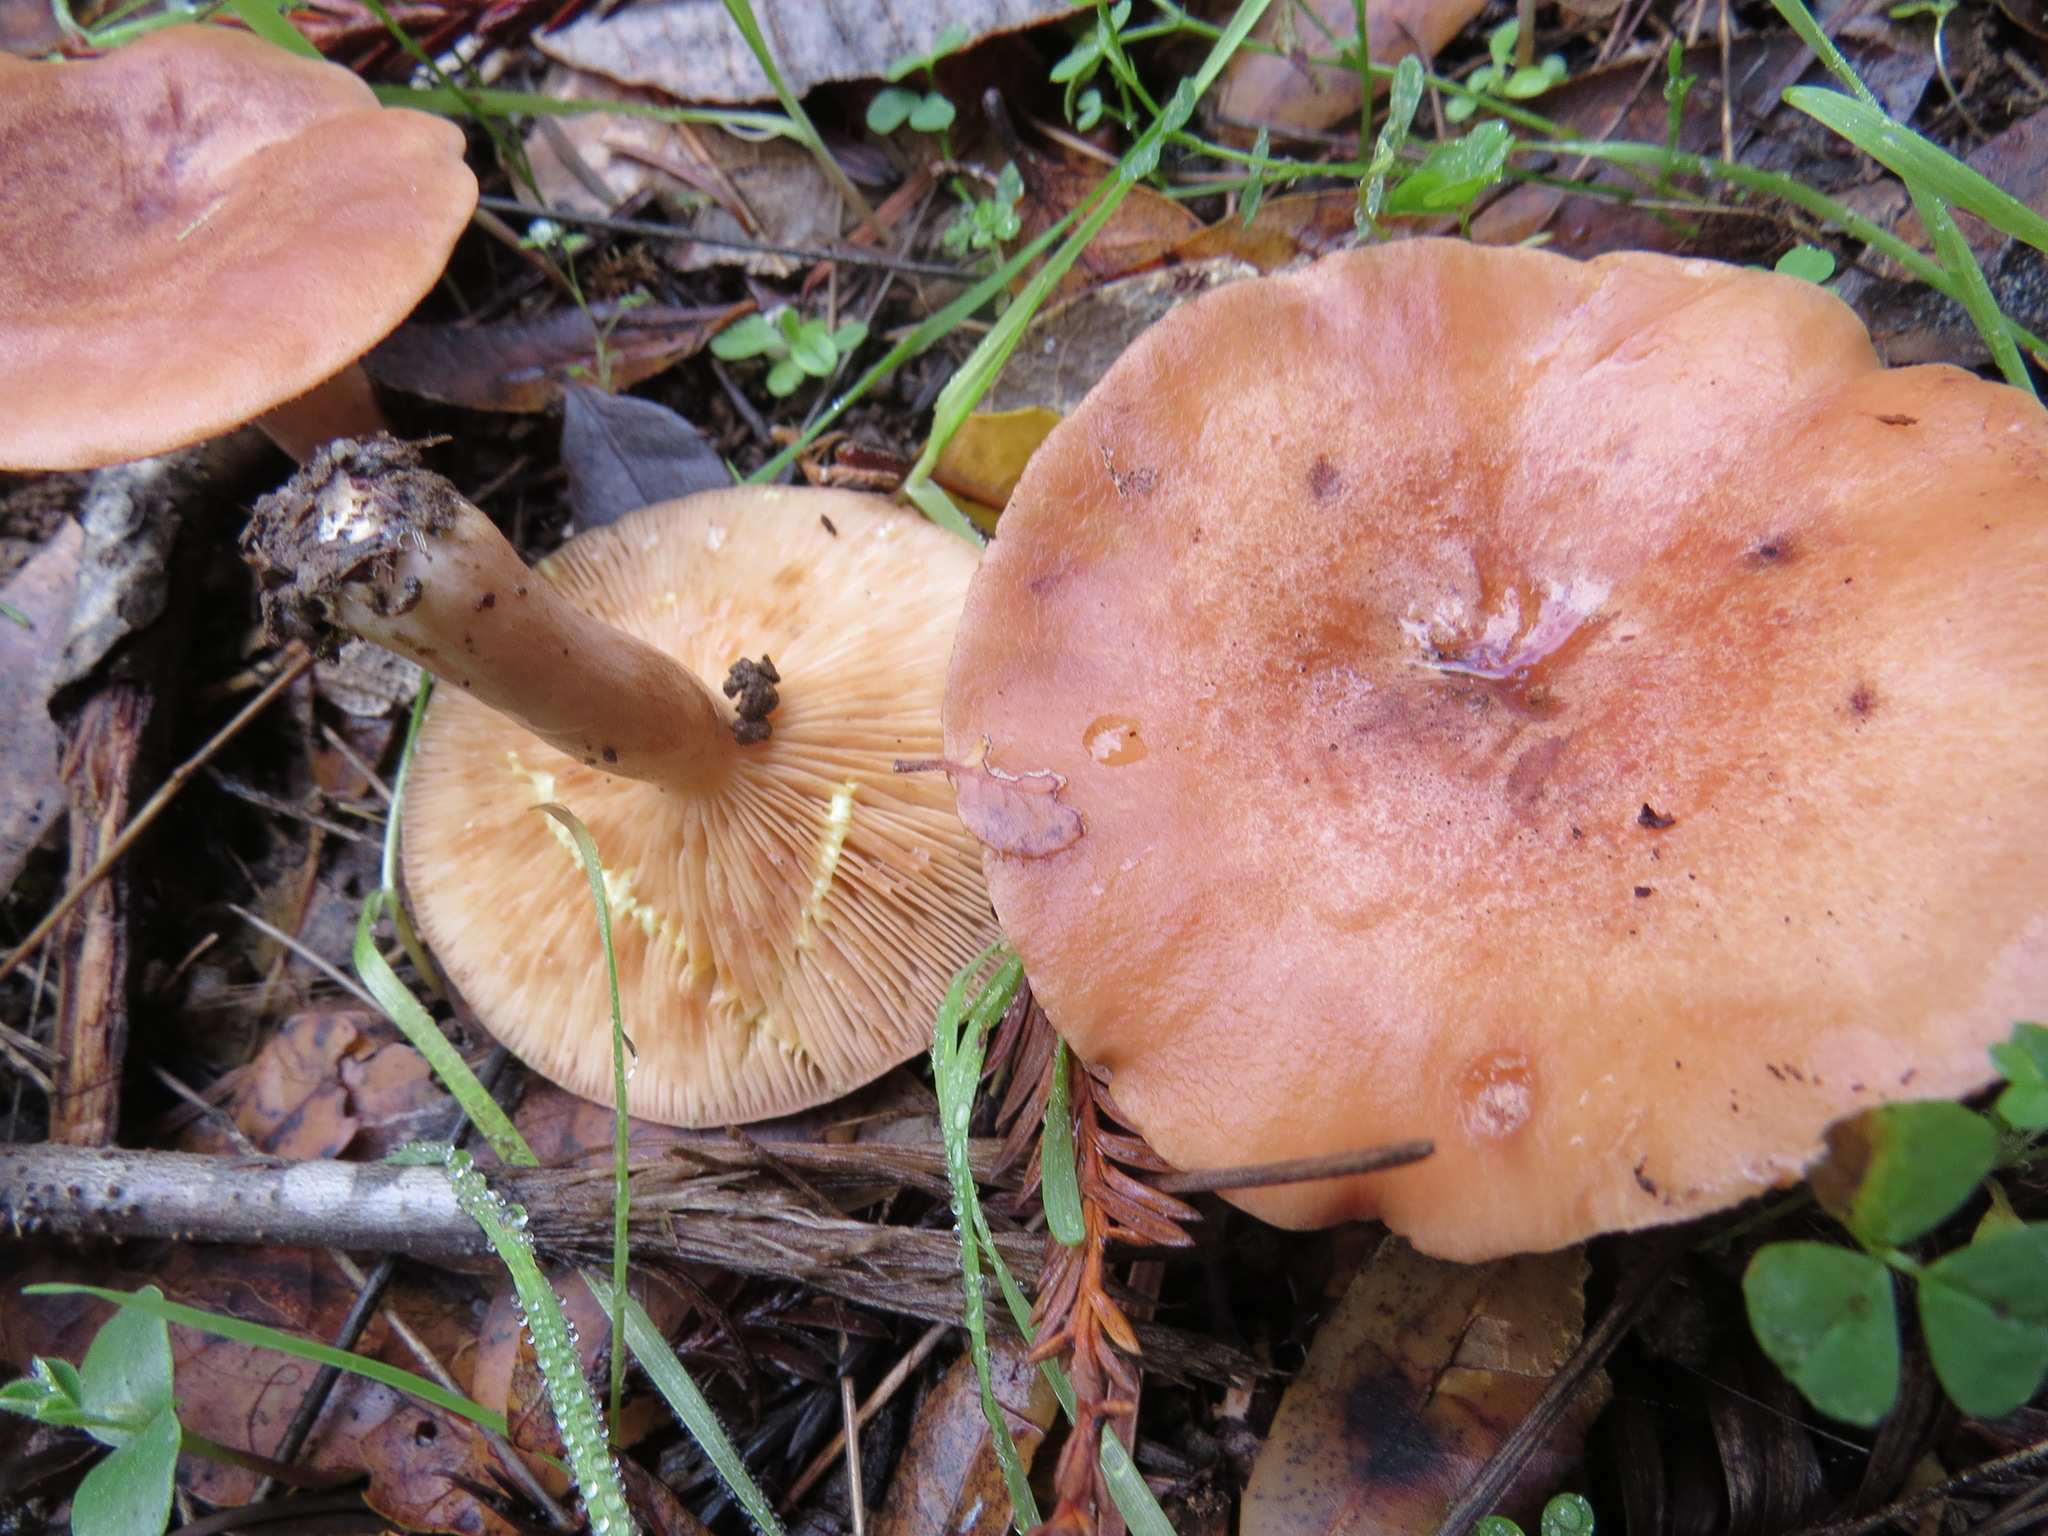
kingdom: Fungi
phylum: Basidiomycota
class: Agaricomycetes
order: Russulales
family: Russulaceae
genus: Lactarius
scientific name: Lactarius xanthogalactus
